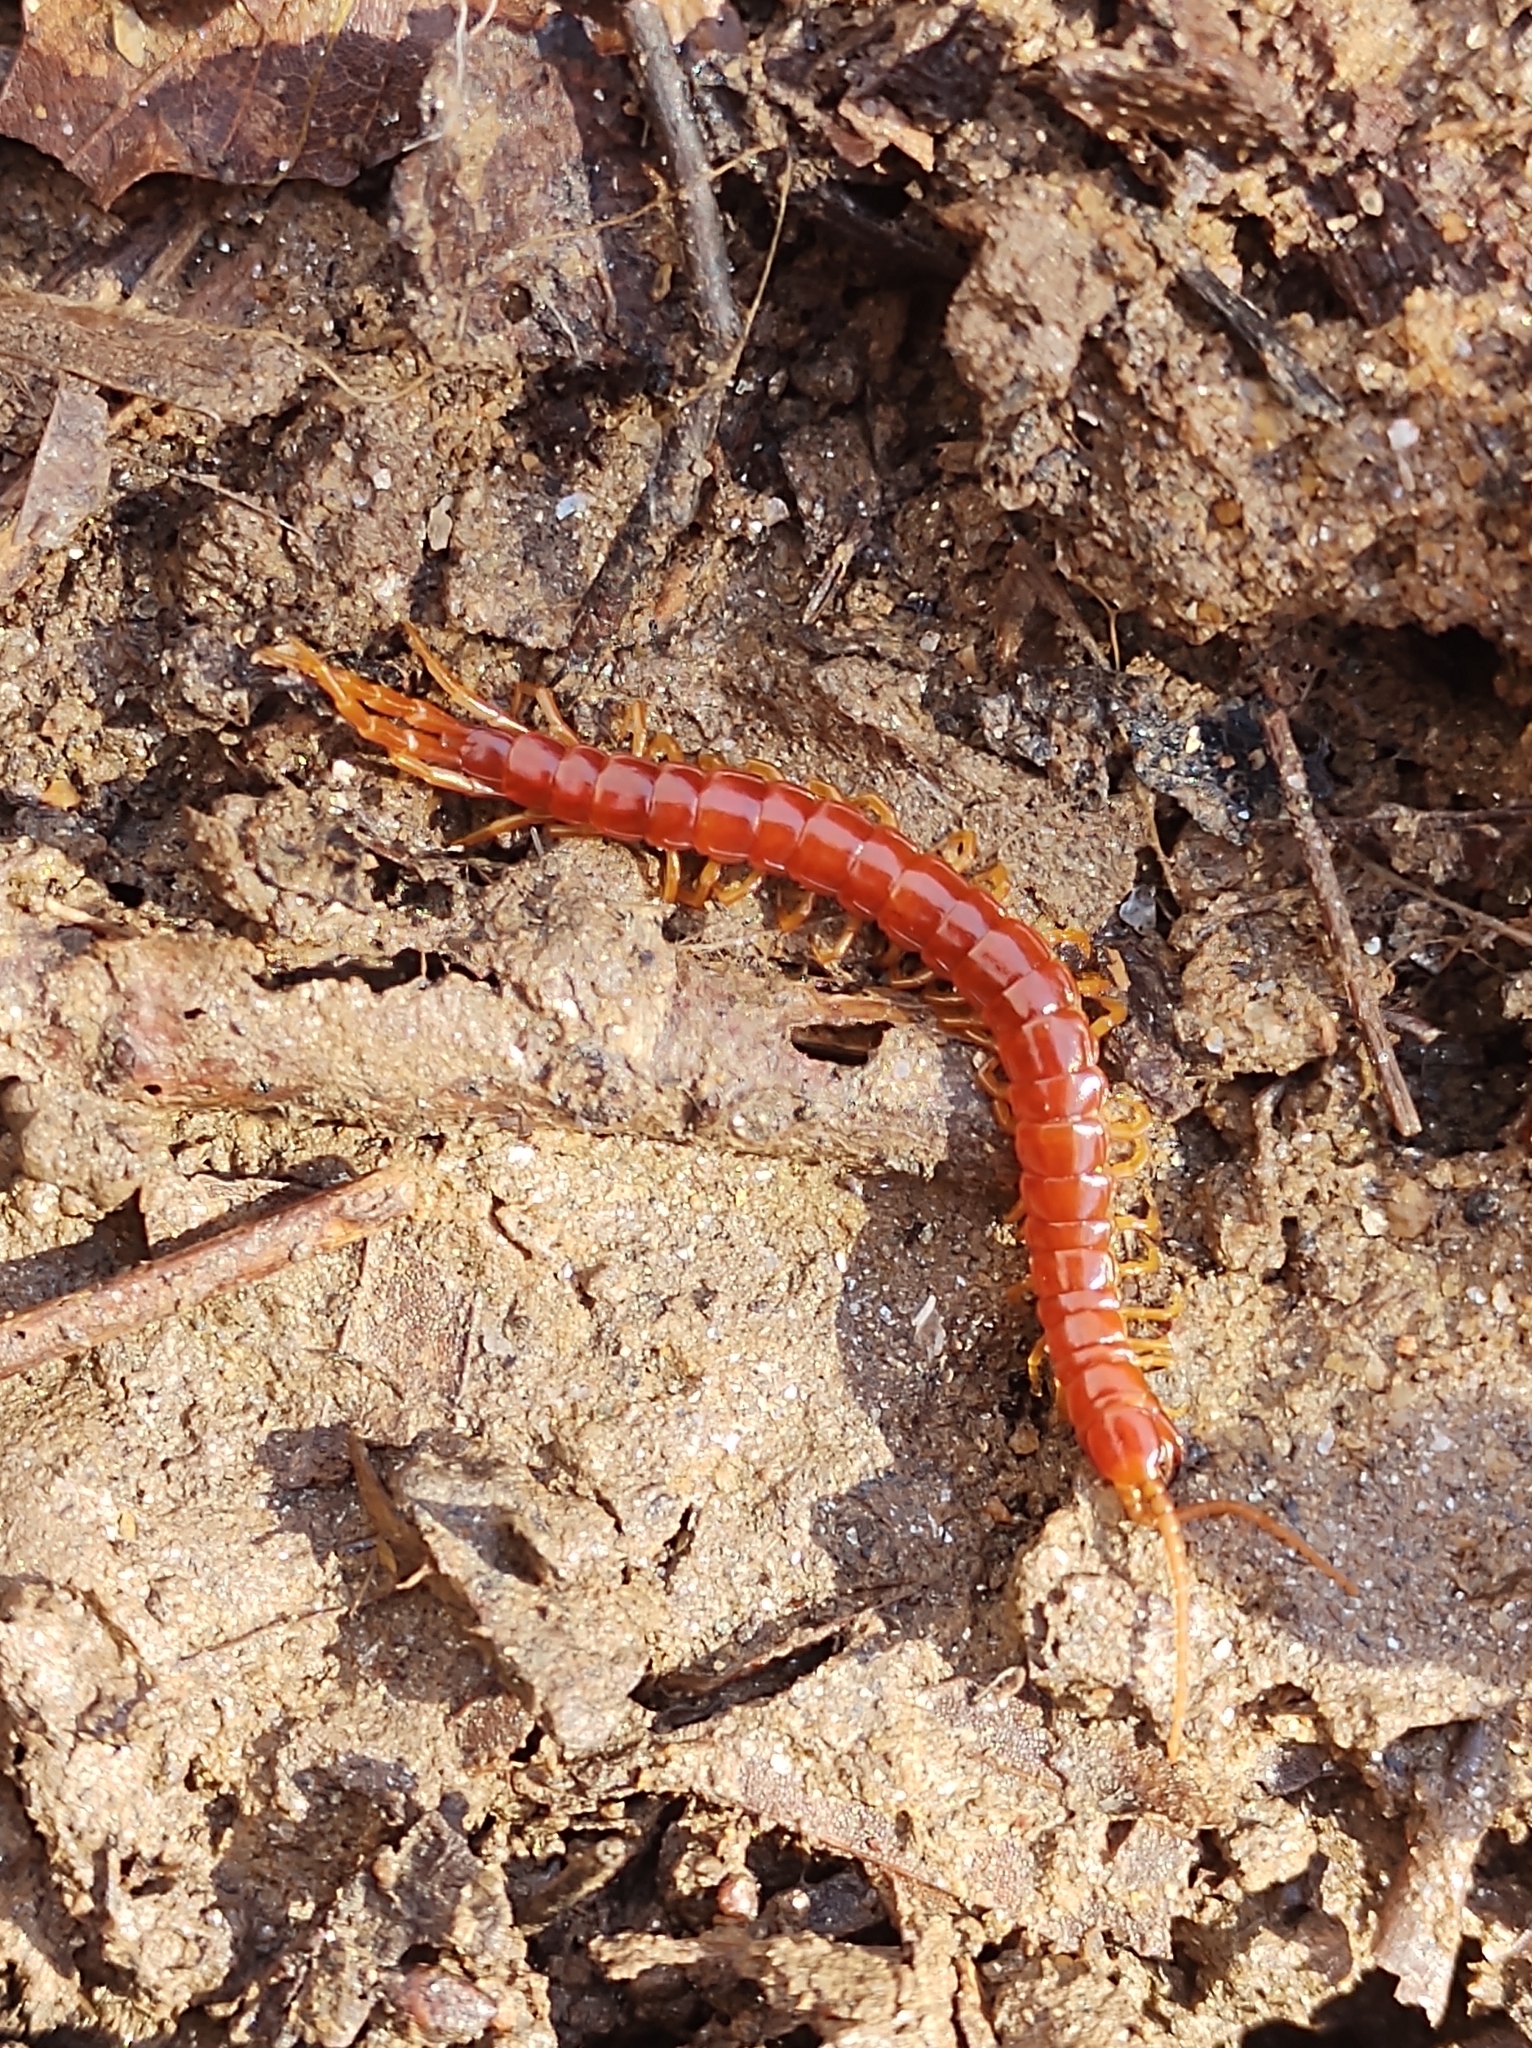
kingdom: Animalia
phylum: Arthropoda
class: Chilopoda
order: Scolopendromorpha
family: Scolopocryptopidae
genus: Scolopocryptops
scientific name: Scolopocryptops sexspinosus
